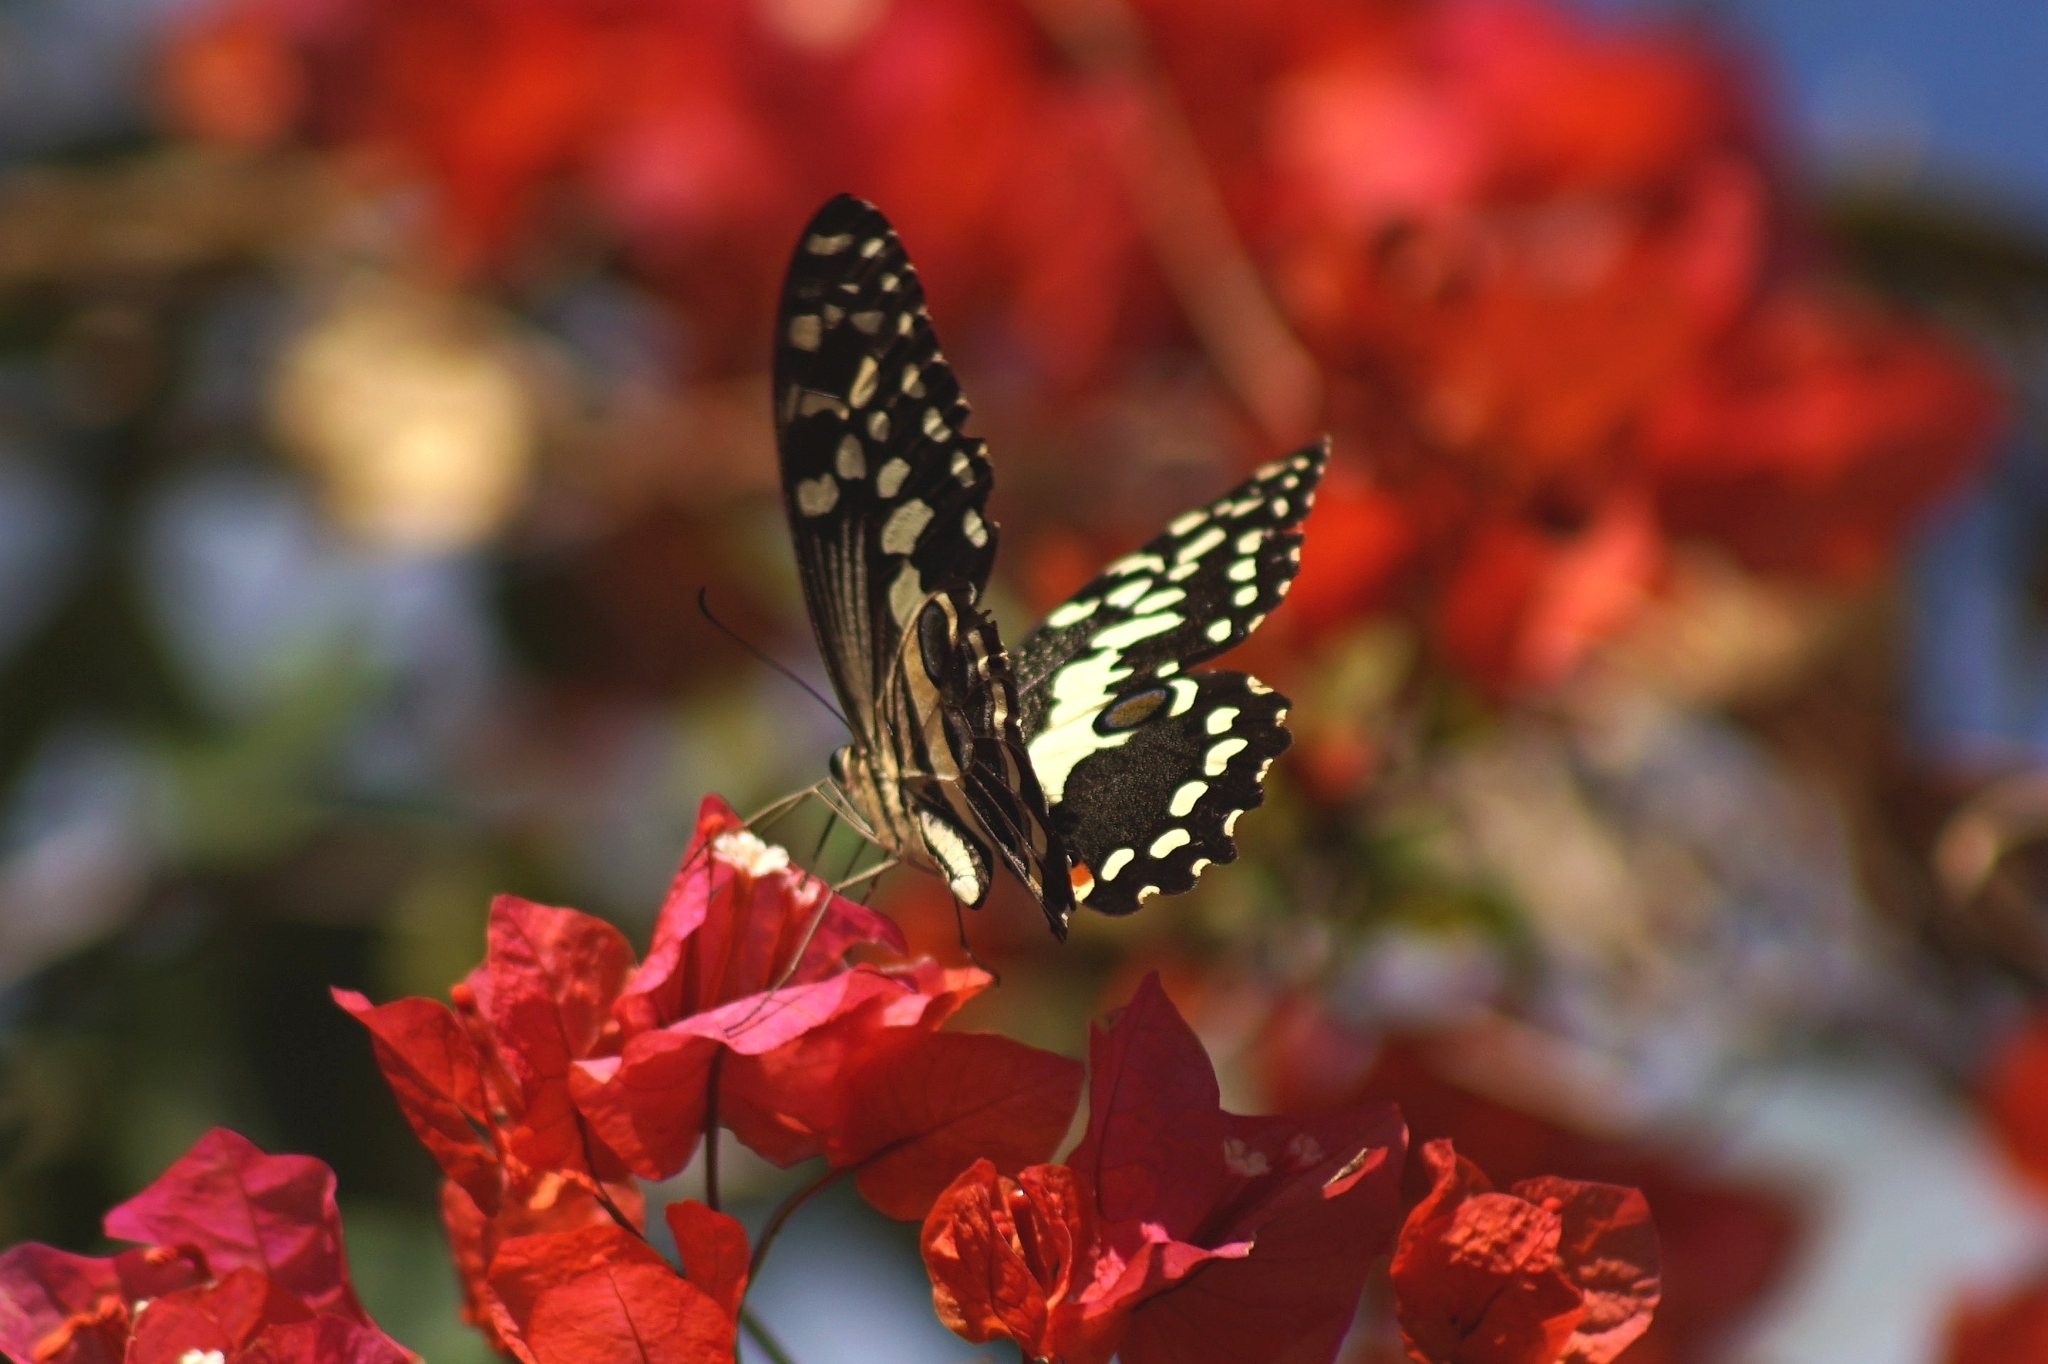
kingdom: Animalia
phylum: Arthropoda
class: Insecta
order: Lepidoptera
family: Papilionidae
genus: Papilio
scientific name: Papilio demodocus
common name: Christmas butterfly
